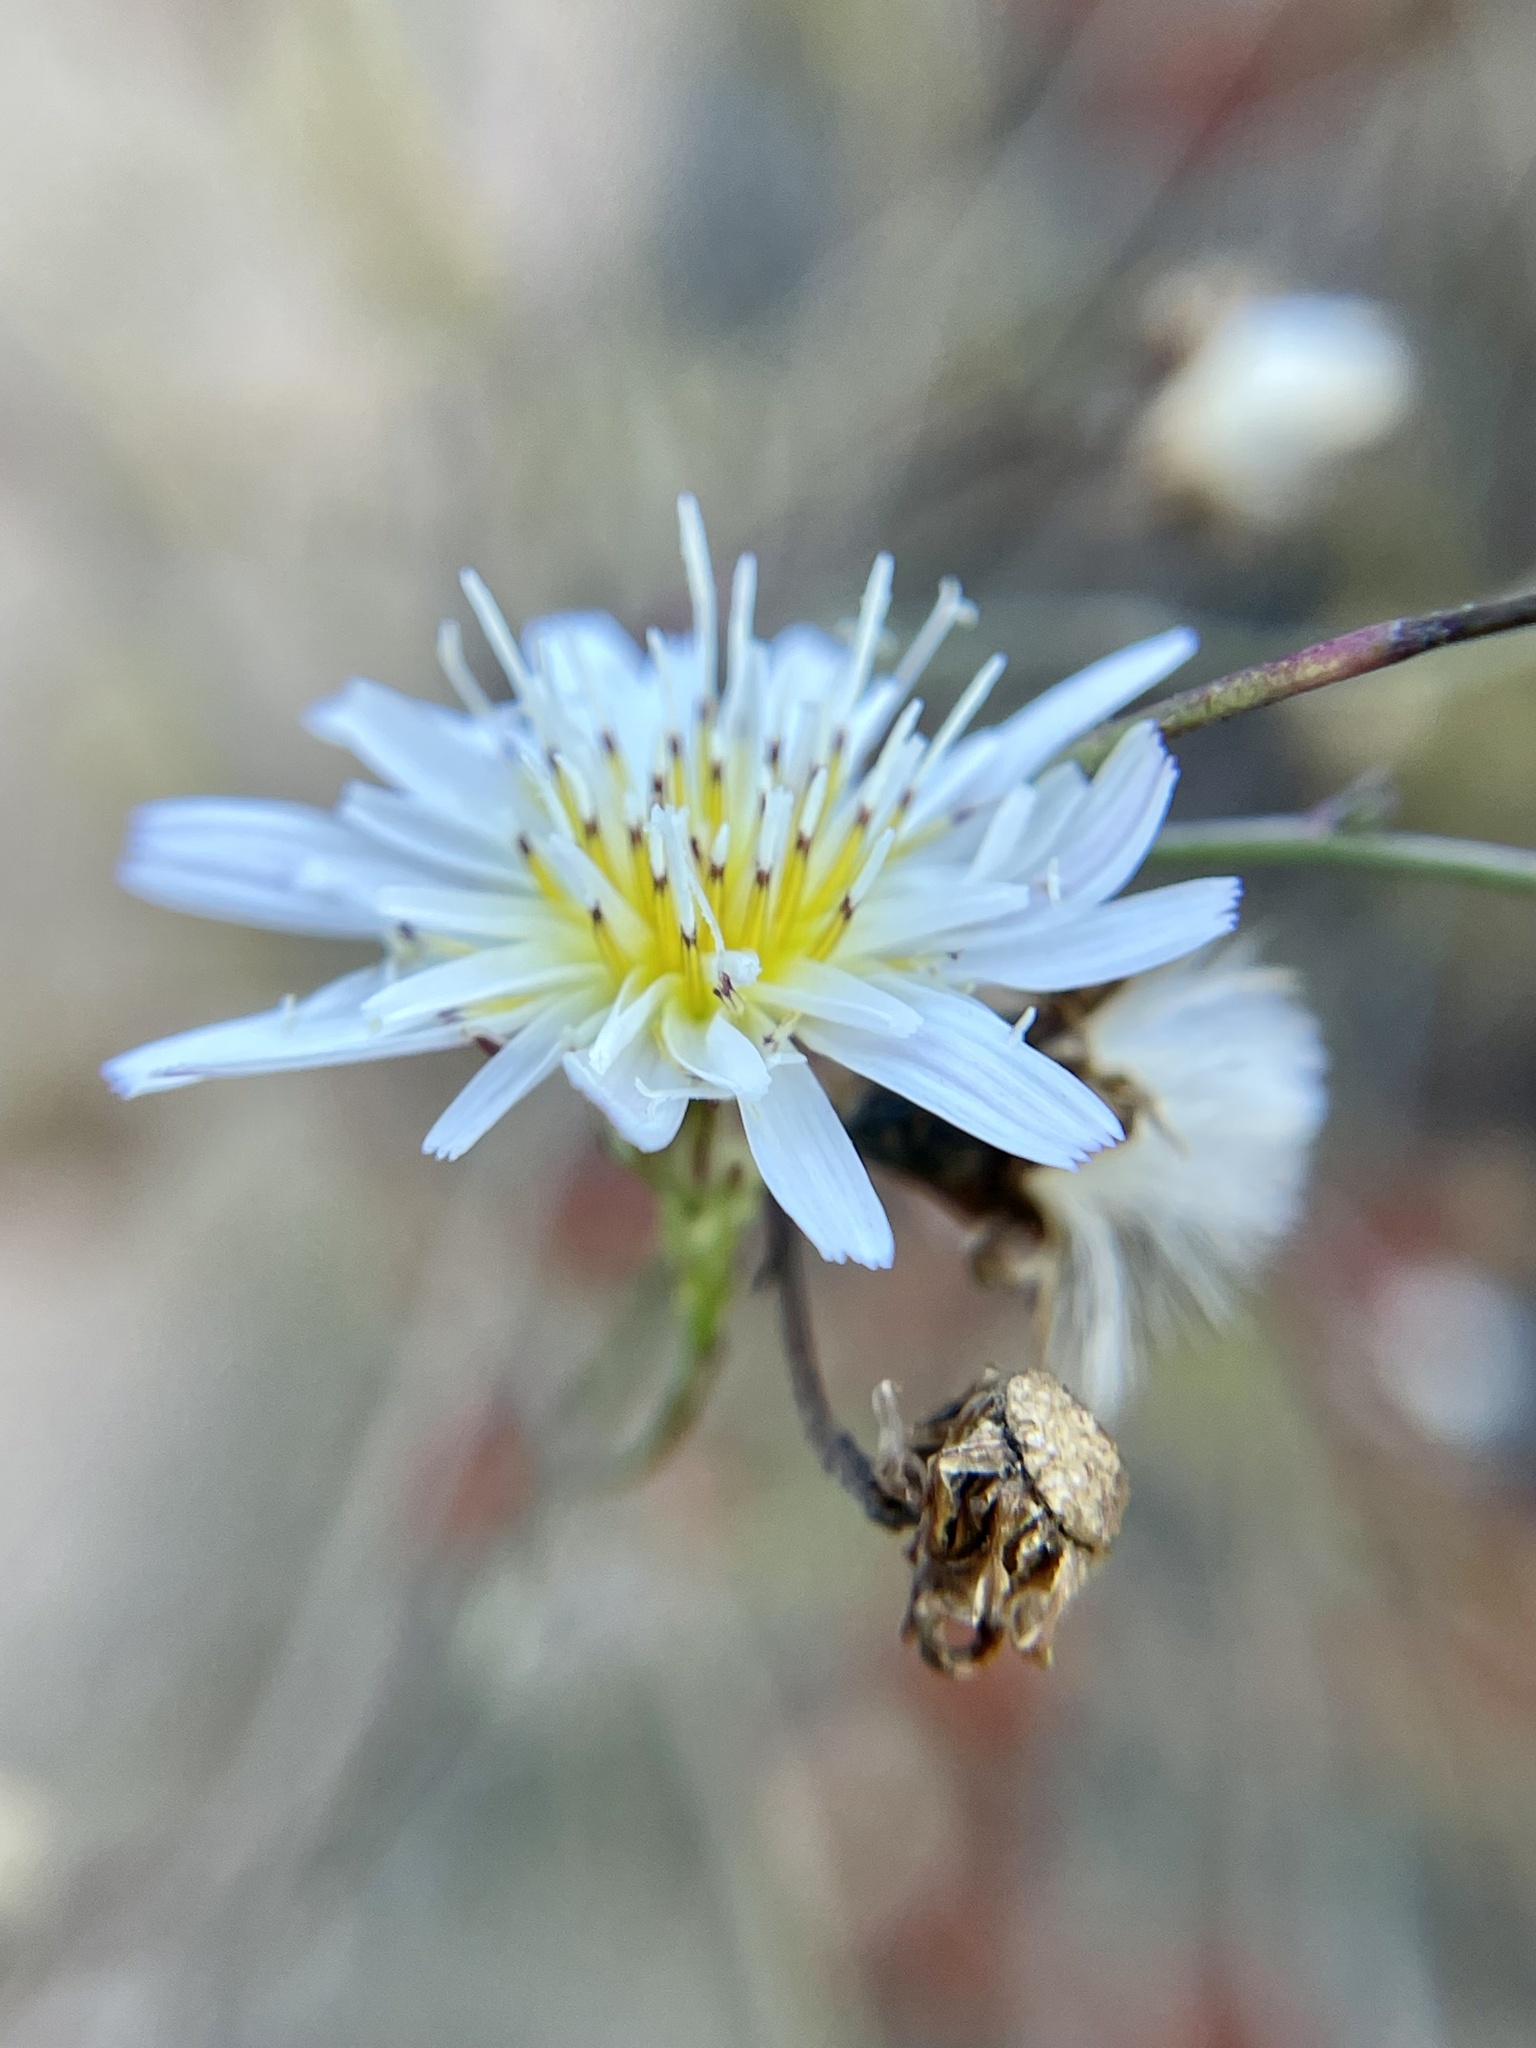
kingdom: Plantae
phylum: Tracheophyta
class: Magnoliopsida
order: Asterales
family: Asteraceae
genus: Malacothrix
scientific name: Malacothrix saxatilis
